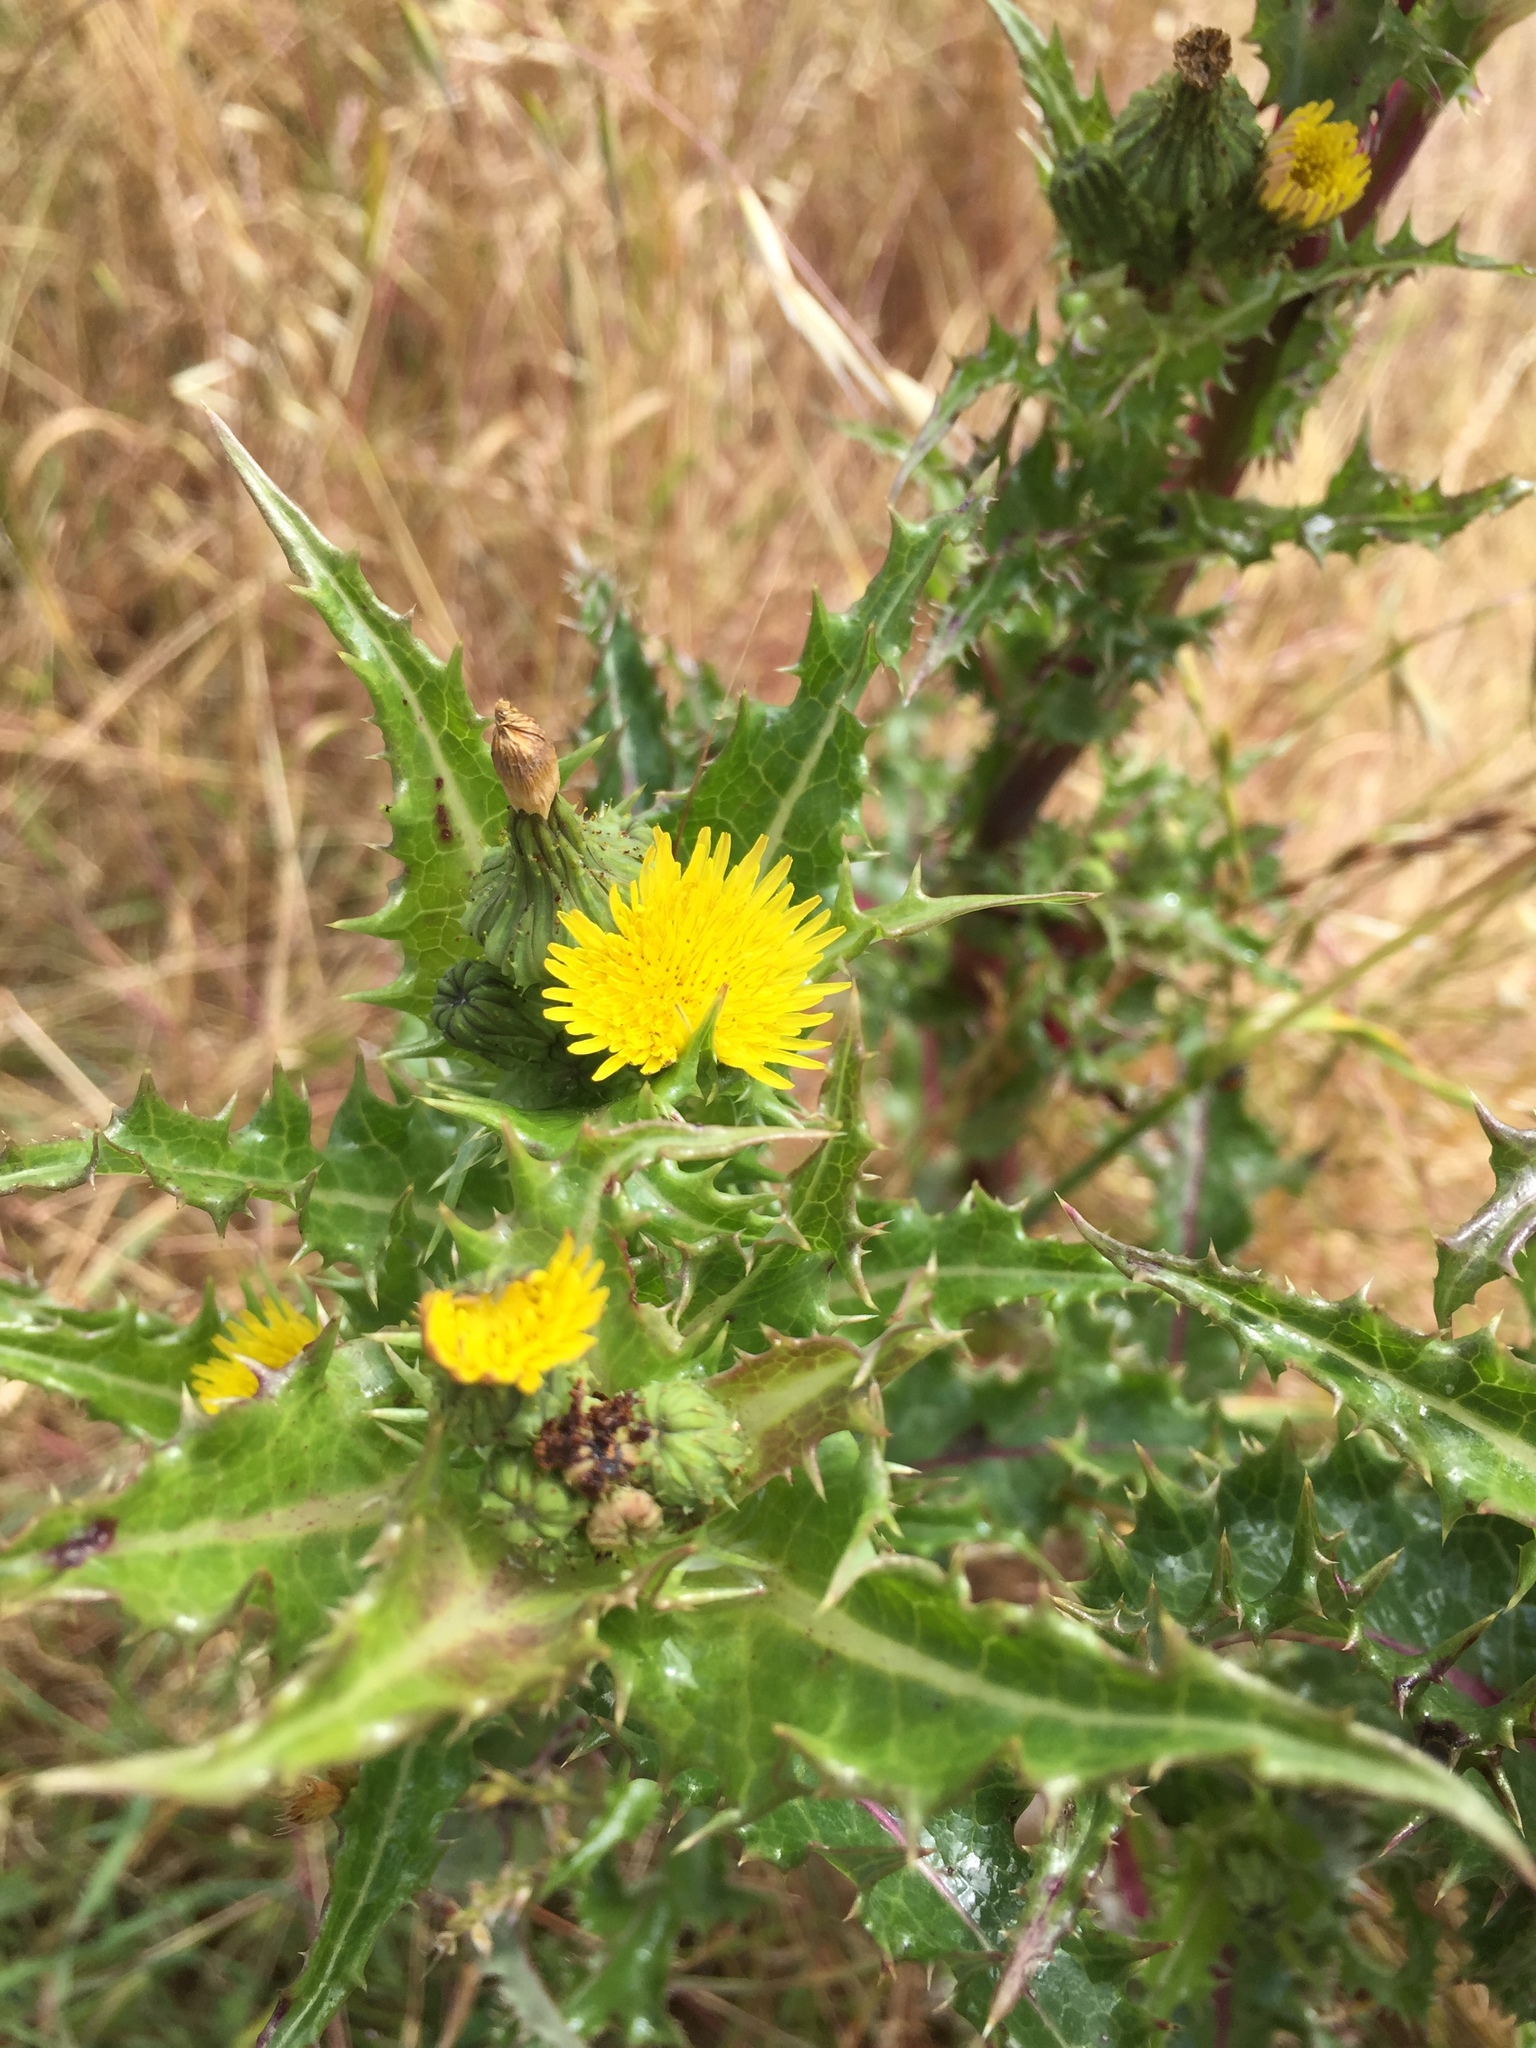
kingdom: Plantae
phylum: Tracheophyta
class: Magnoliopsida
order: Asterales
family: Asteraceae
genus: Sonchus
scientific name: Sonchus asper
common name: Prickly sow-thistle
